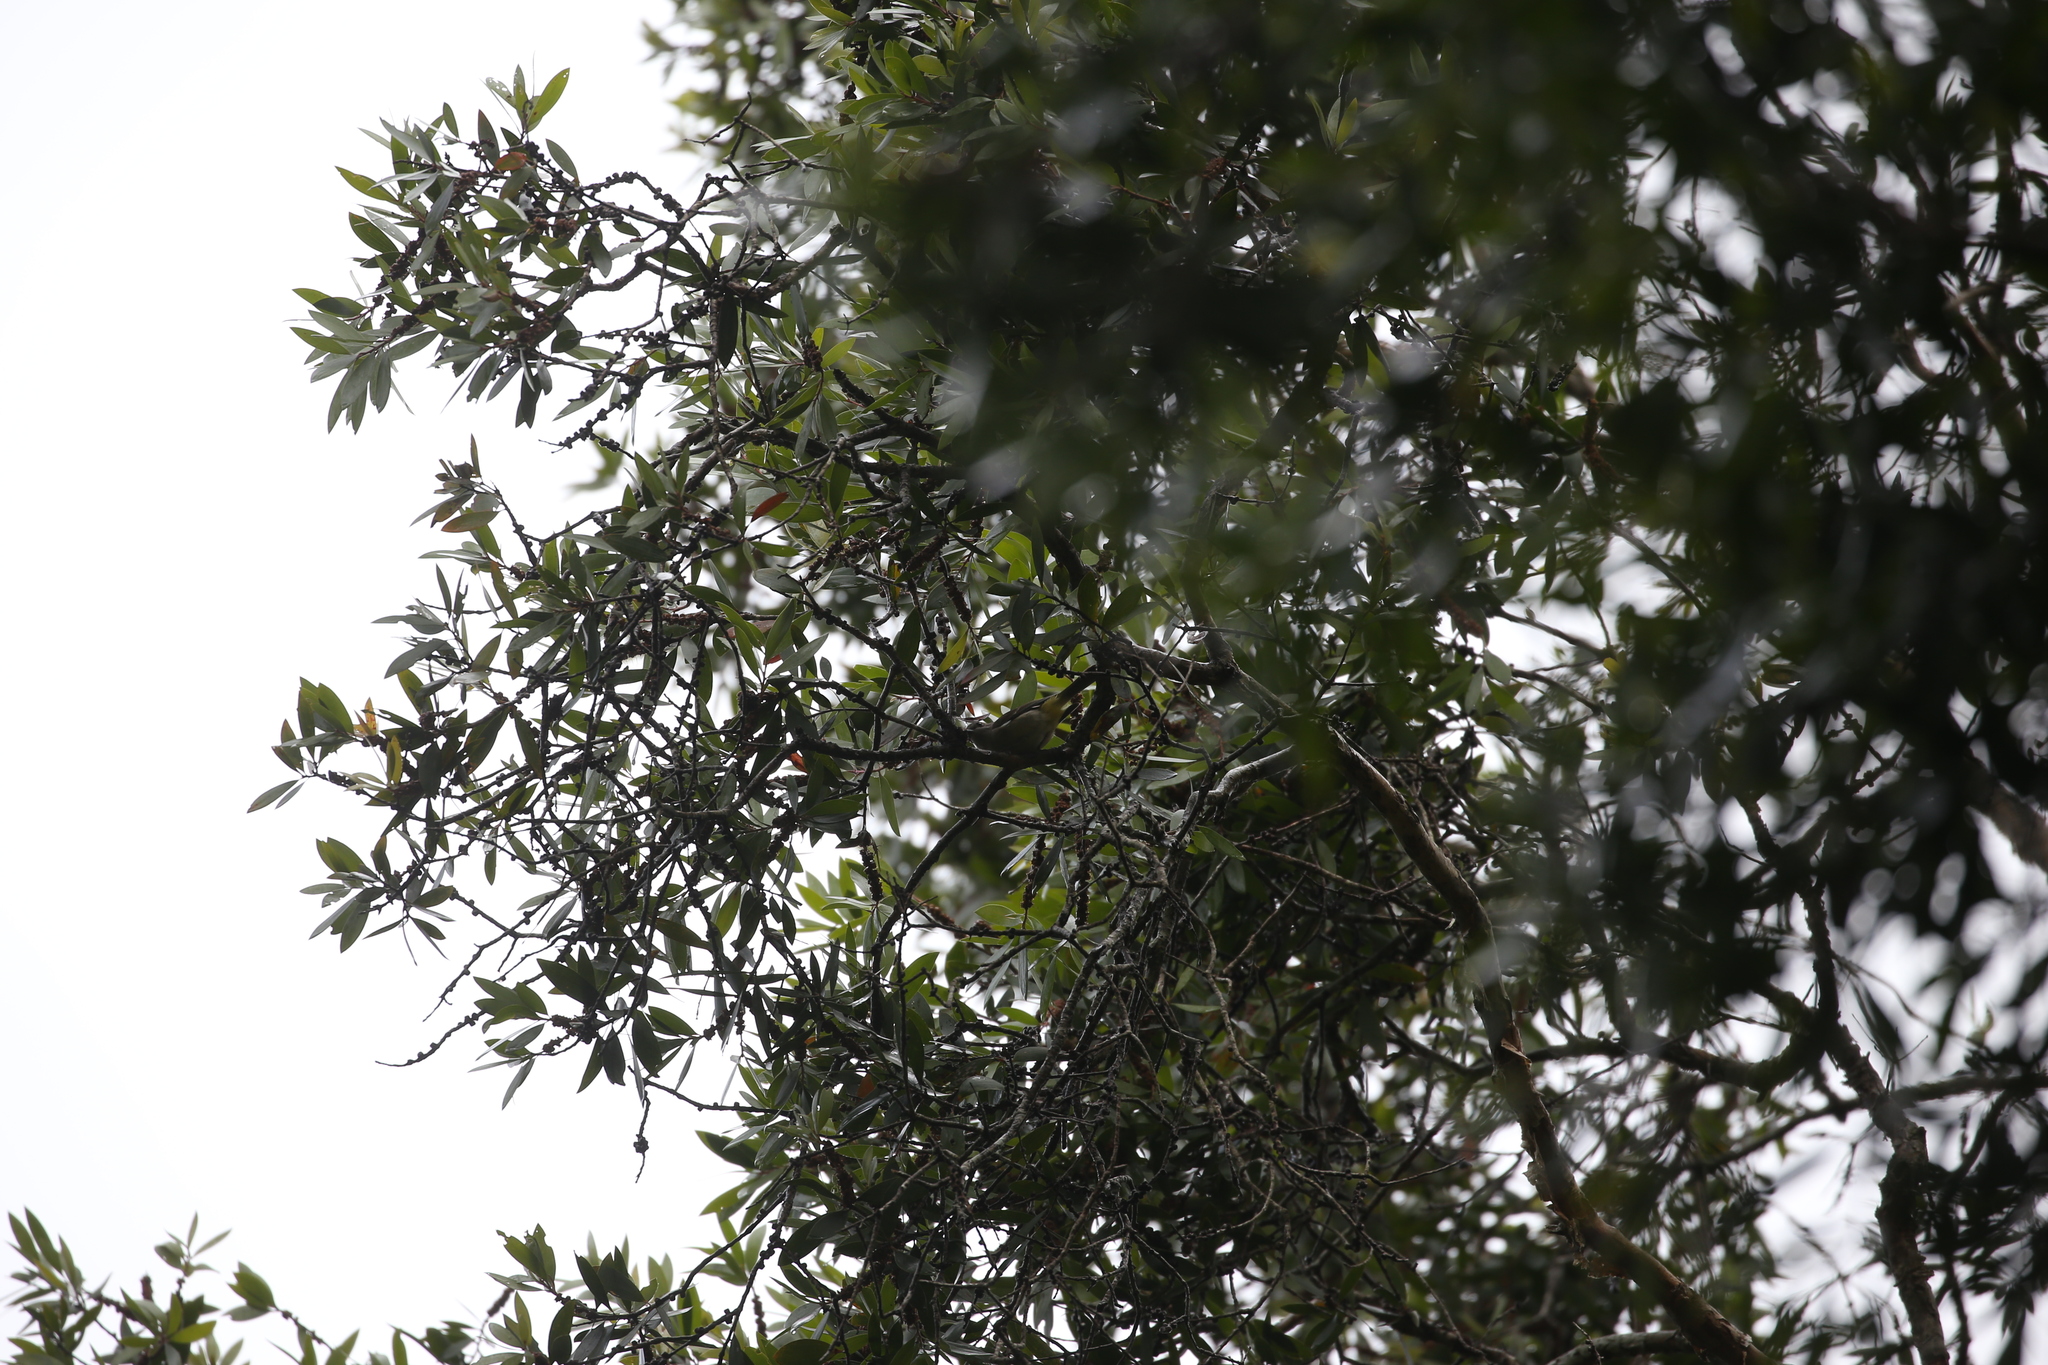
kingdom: Animalia
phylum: Chordata
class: Aves
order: Passeriformes
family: Pachycephalidae
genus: Pachycephala
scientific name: Pachycephala pectoralis
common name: Australian golden whistler
